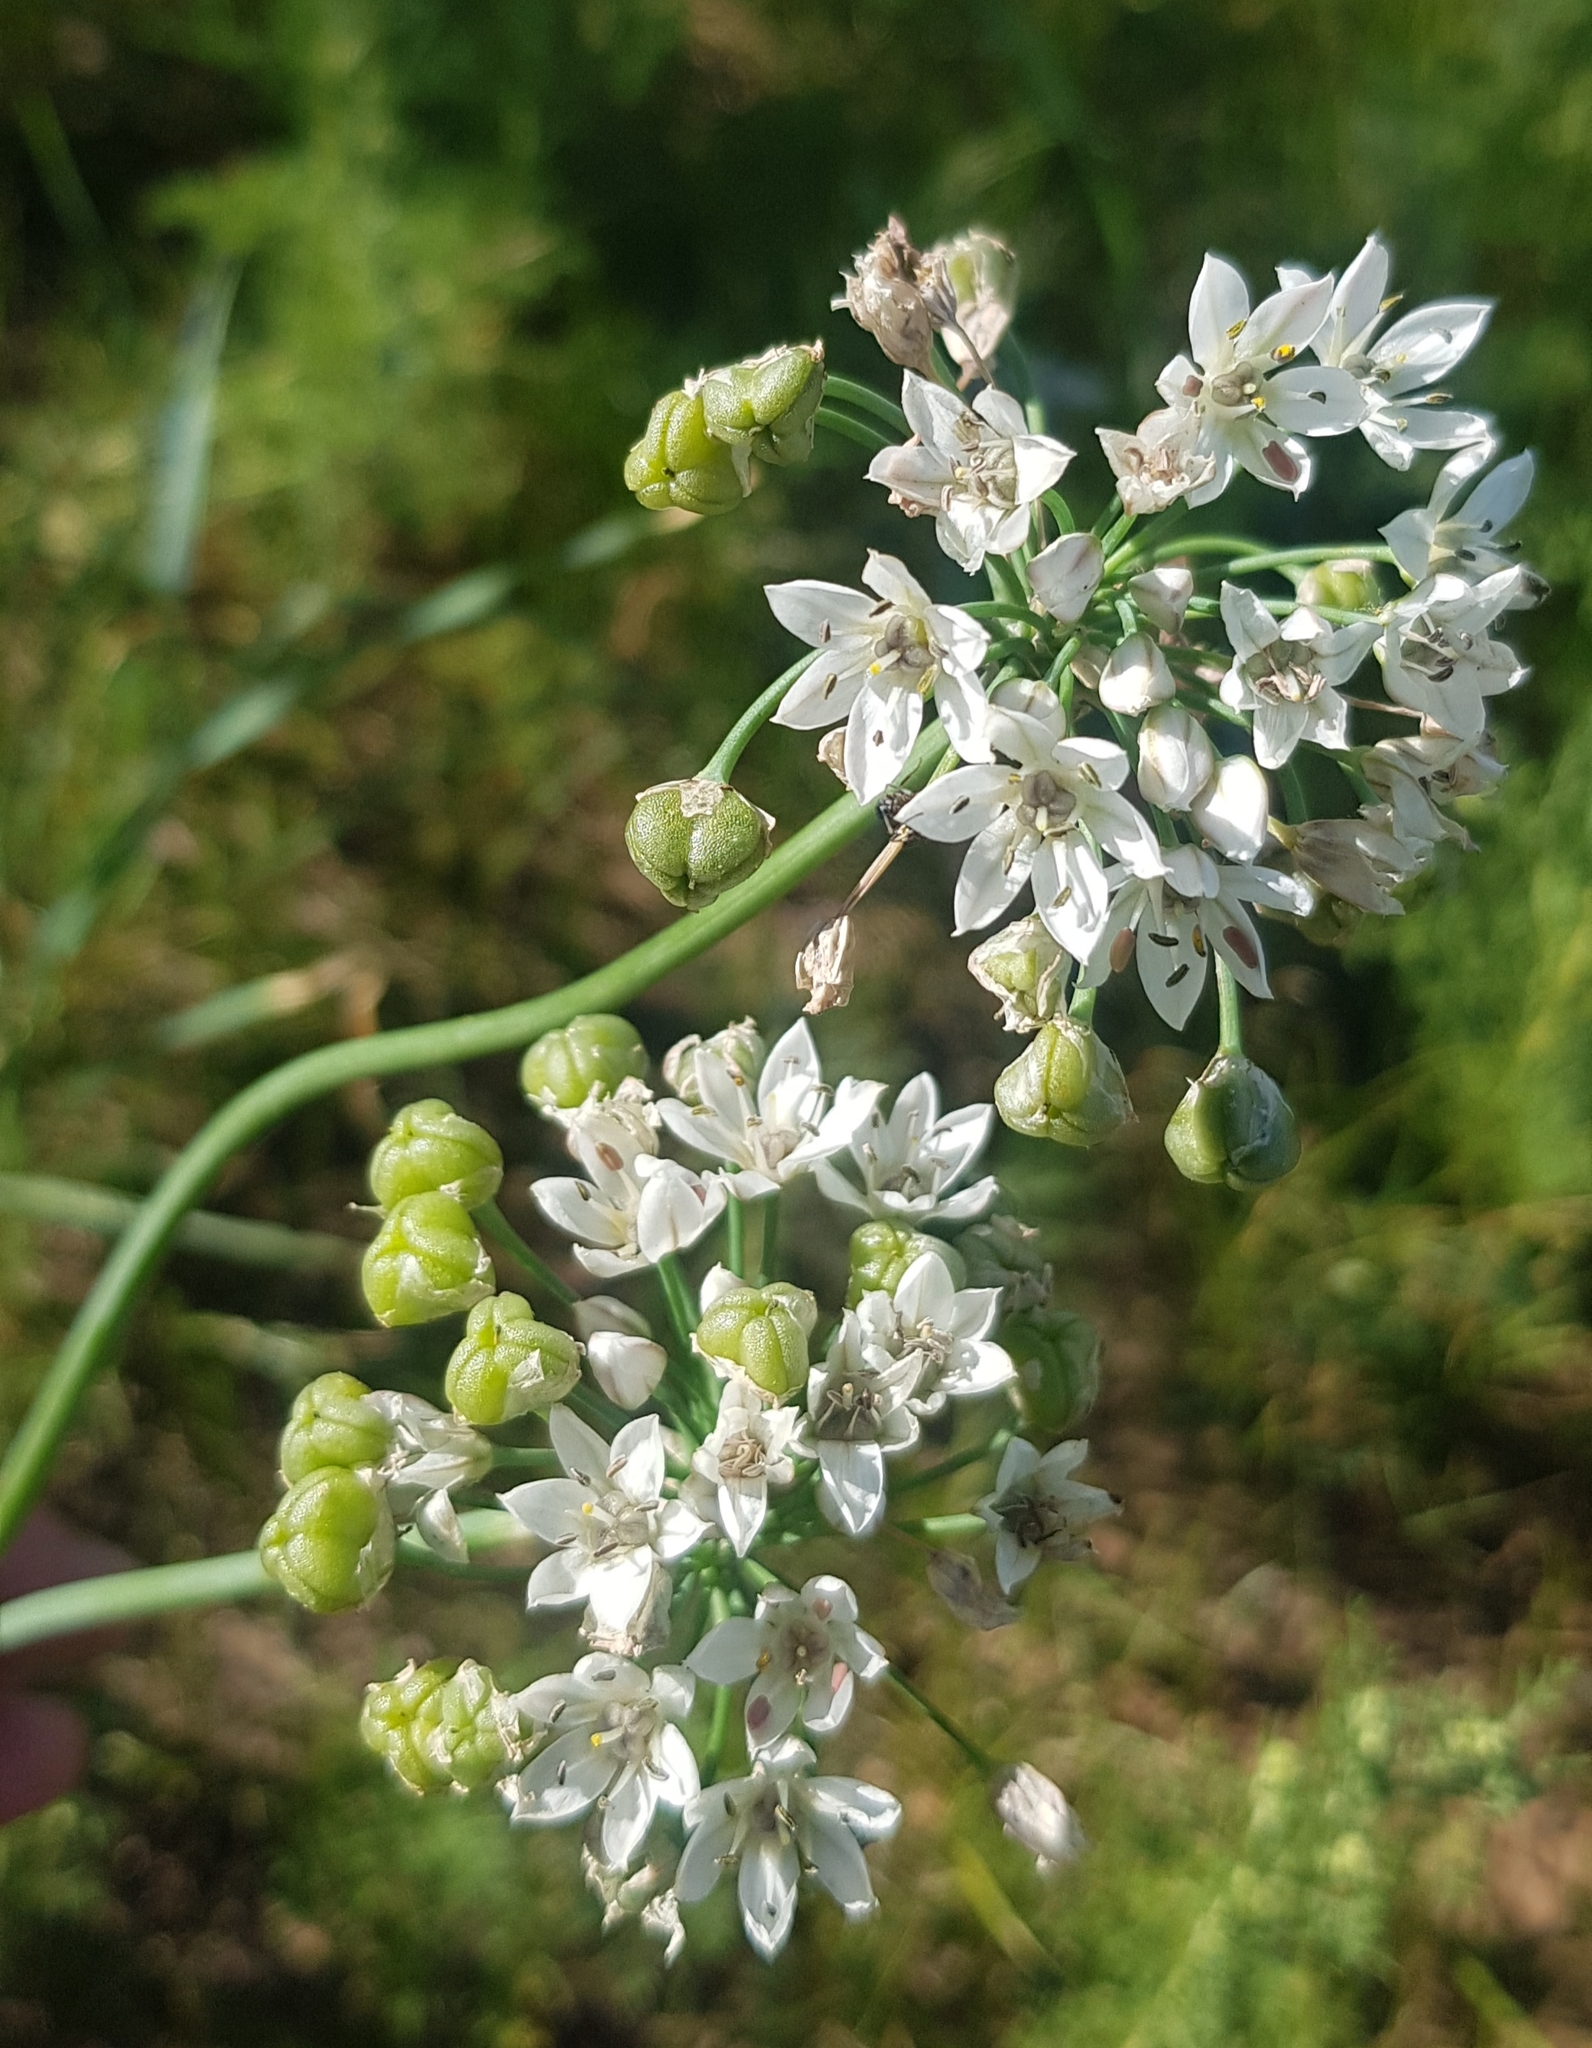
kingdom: Plantae
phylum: Tracheophyta
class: Liliopsida
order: Asparagales
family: Amaryllidaceae
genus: Allium
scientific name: Allium ramosum
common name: Fragrant garlic
